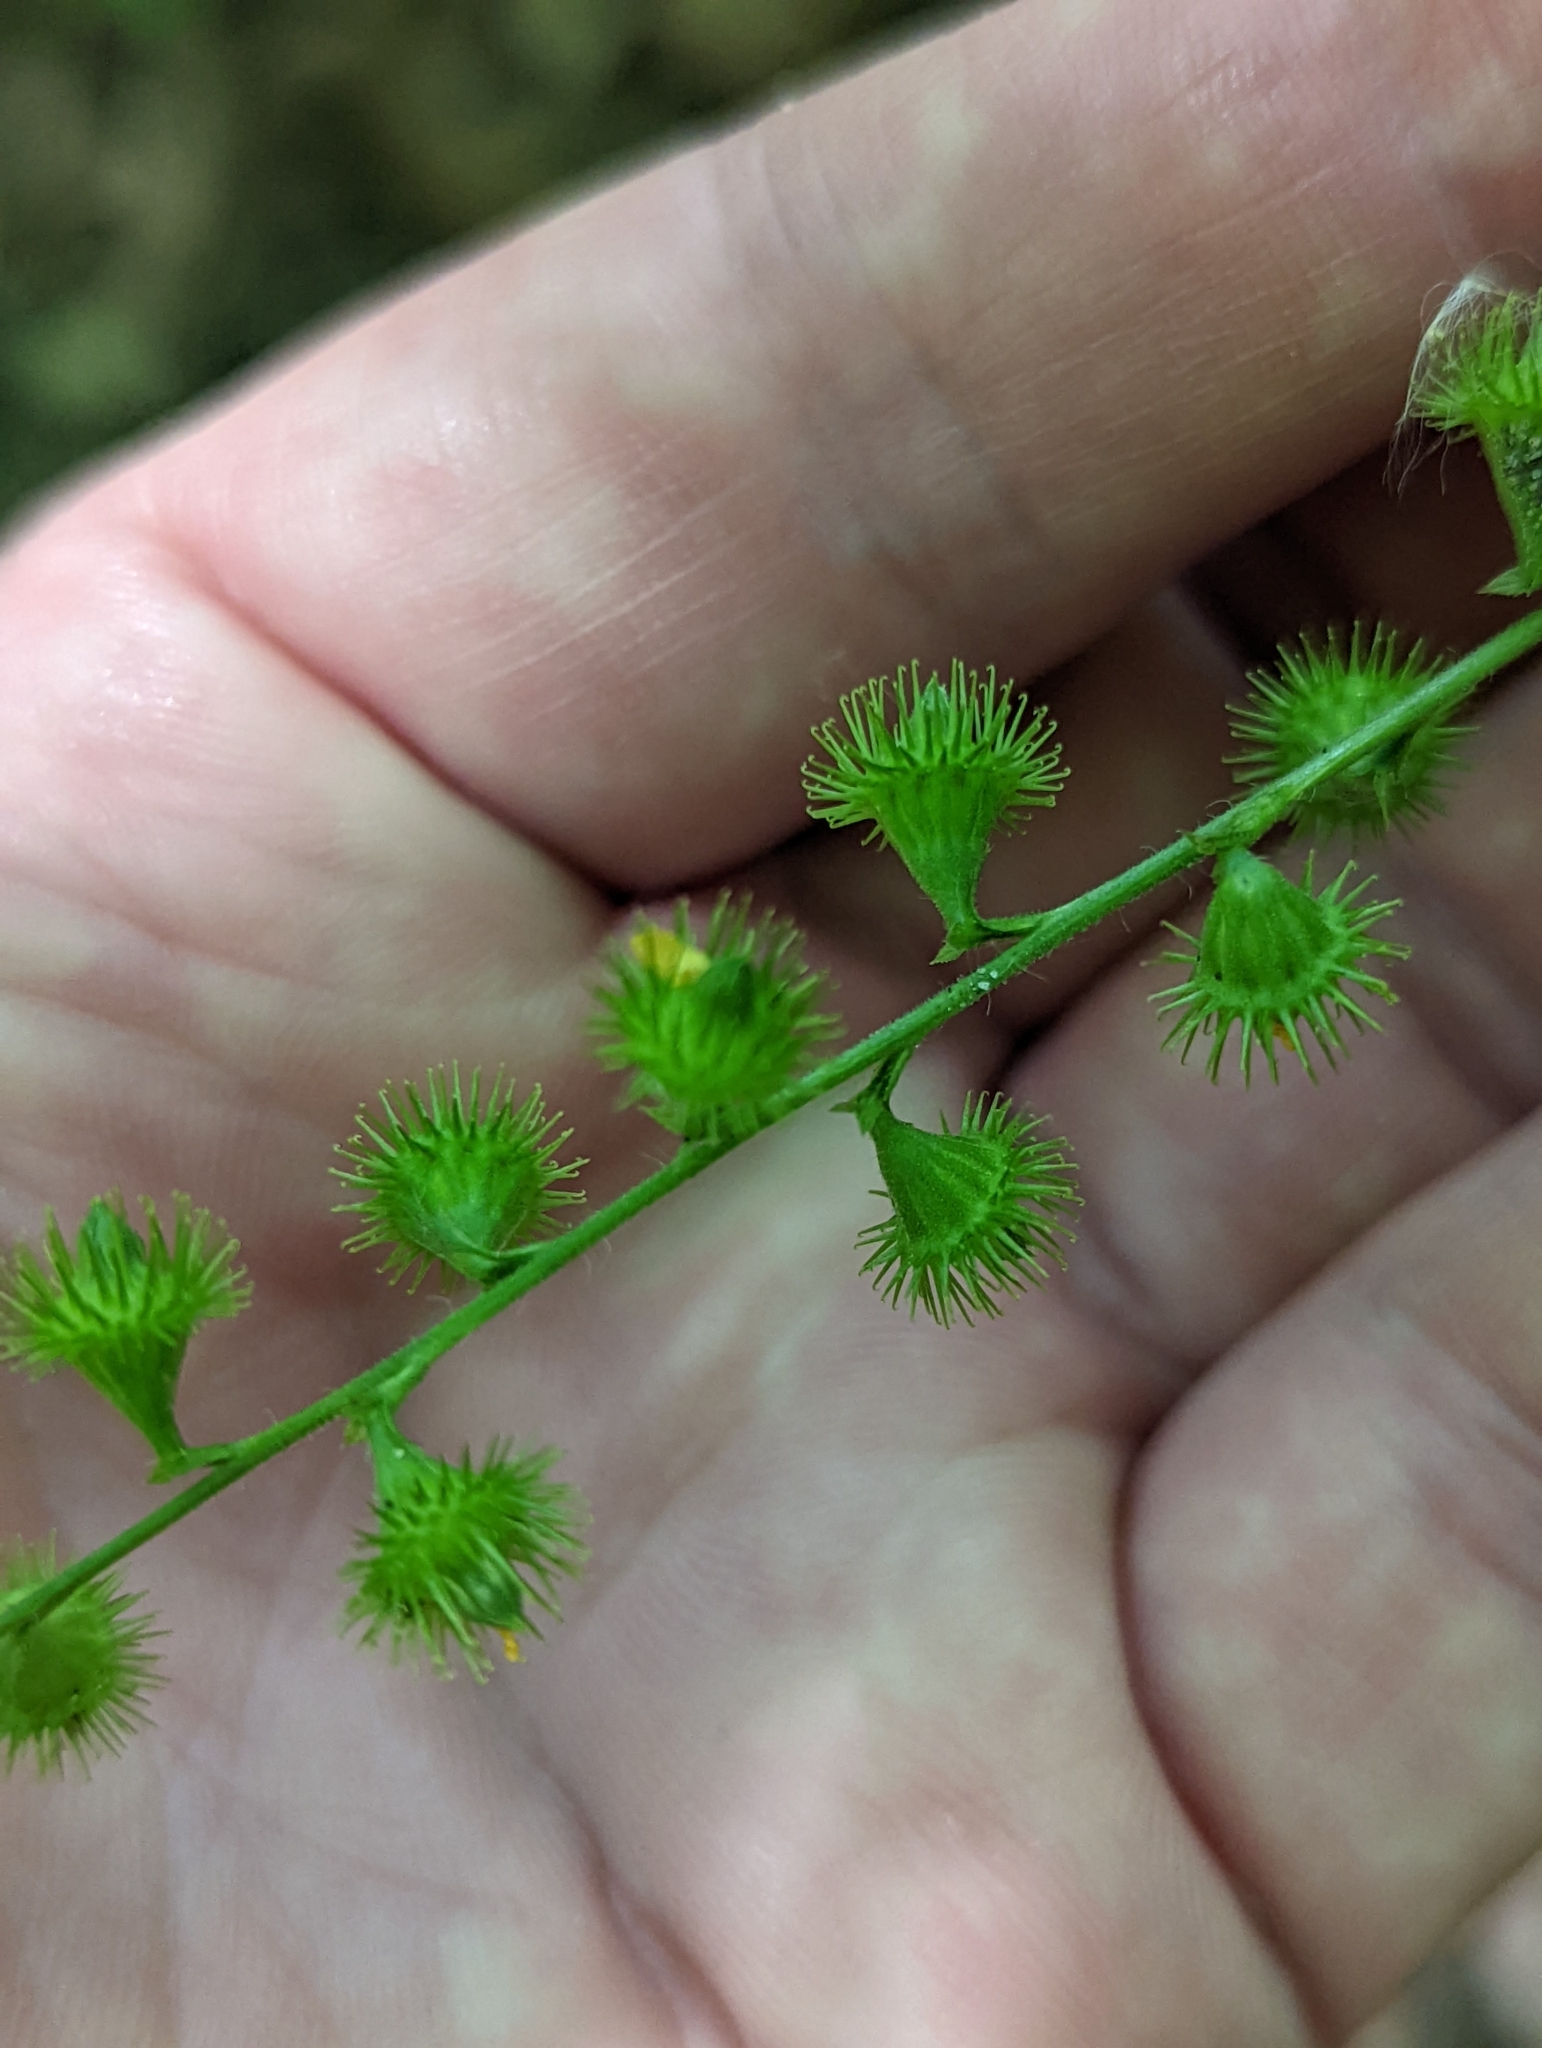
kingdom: Plantae
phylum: Tracheophyta
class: Magnoliopsida
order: Rosales
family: Rosaceae
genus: Agrimonia
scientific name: Agrimonia gryposepala
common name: Common agrimony
